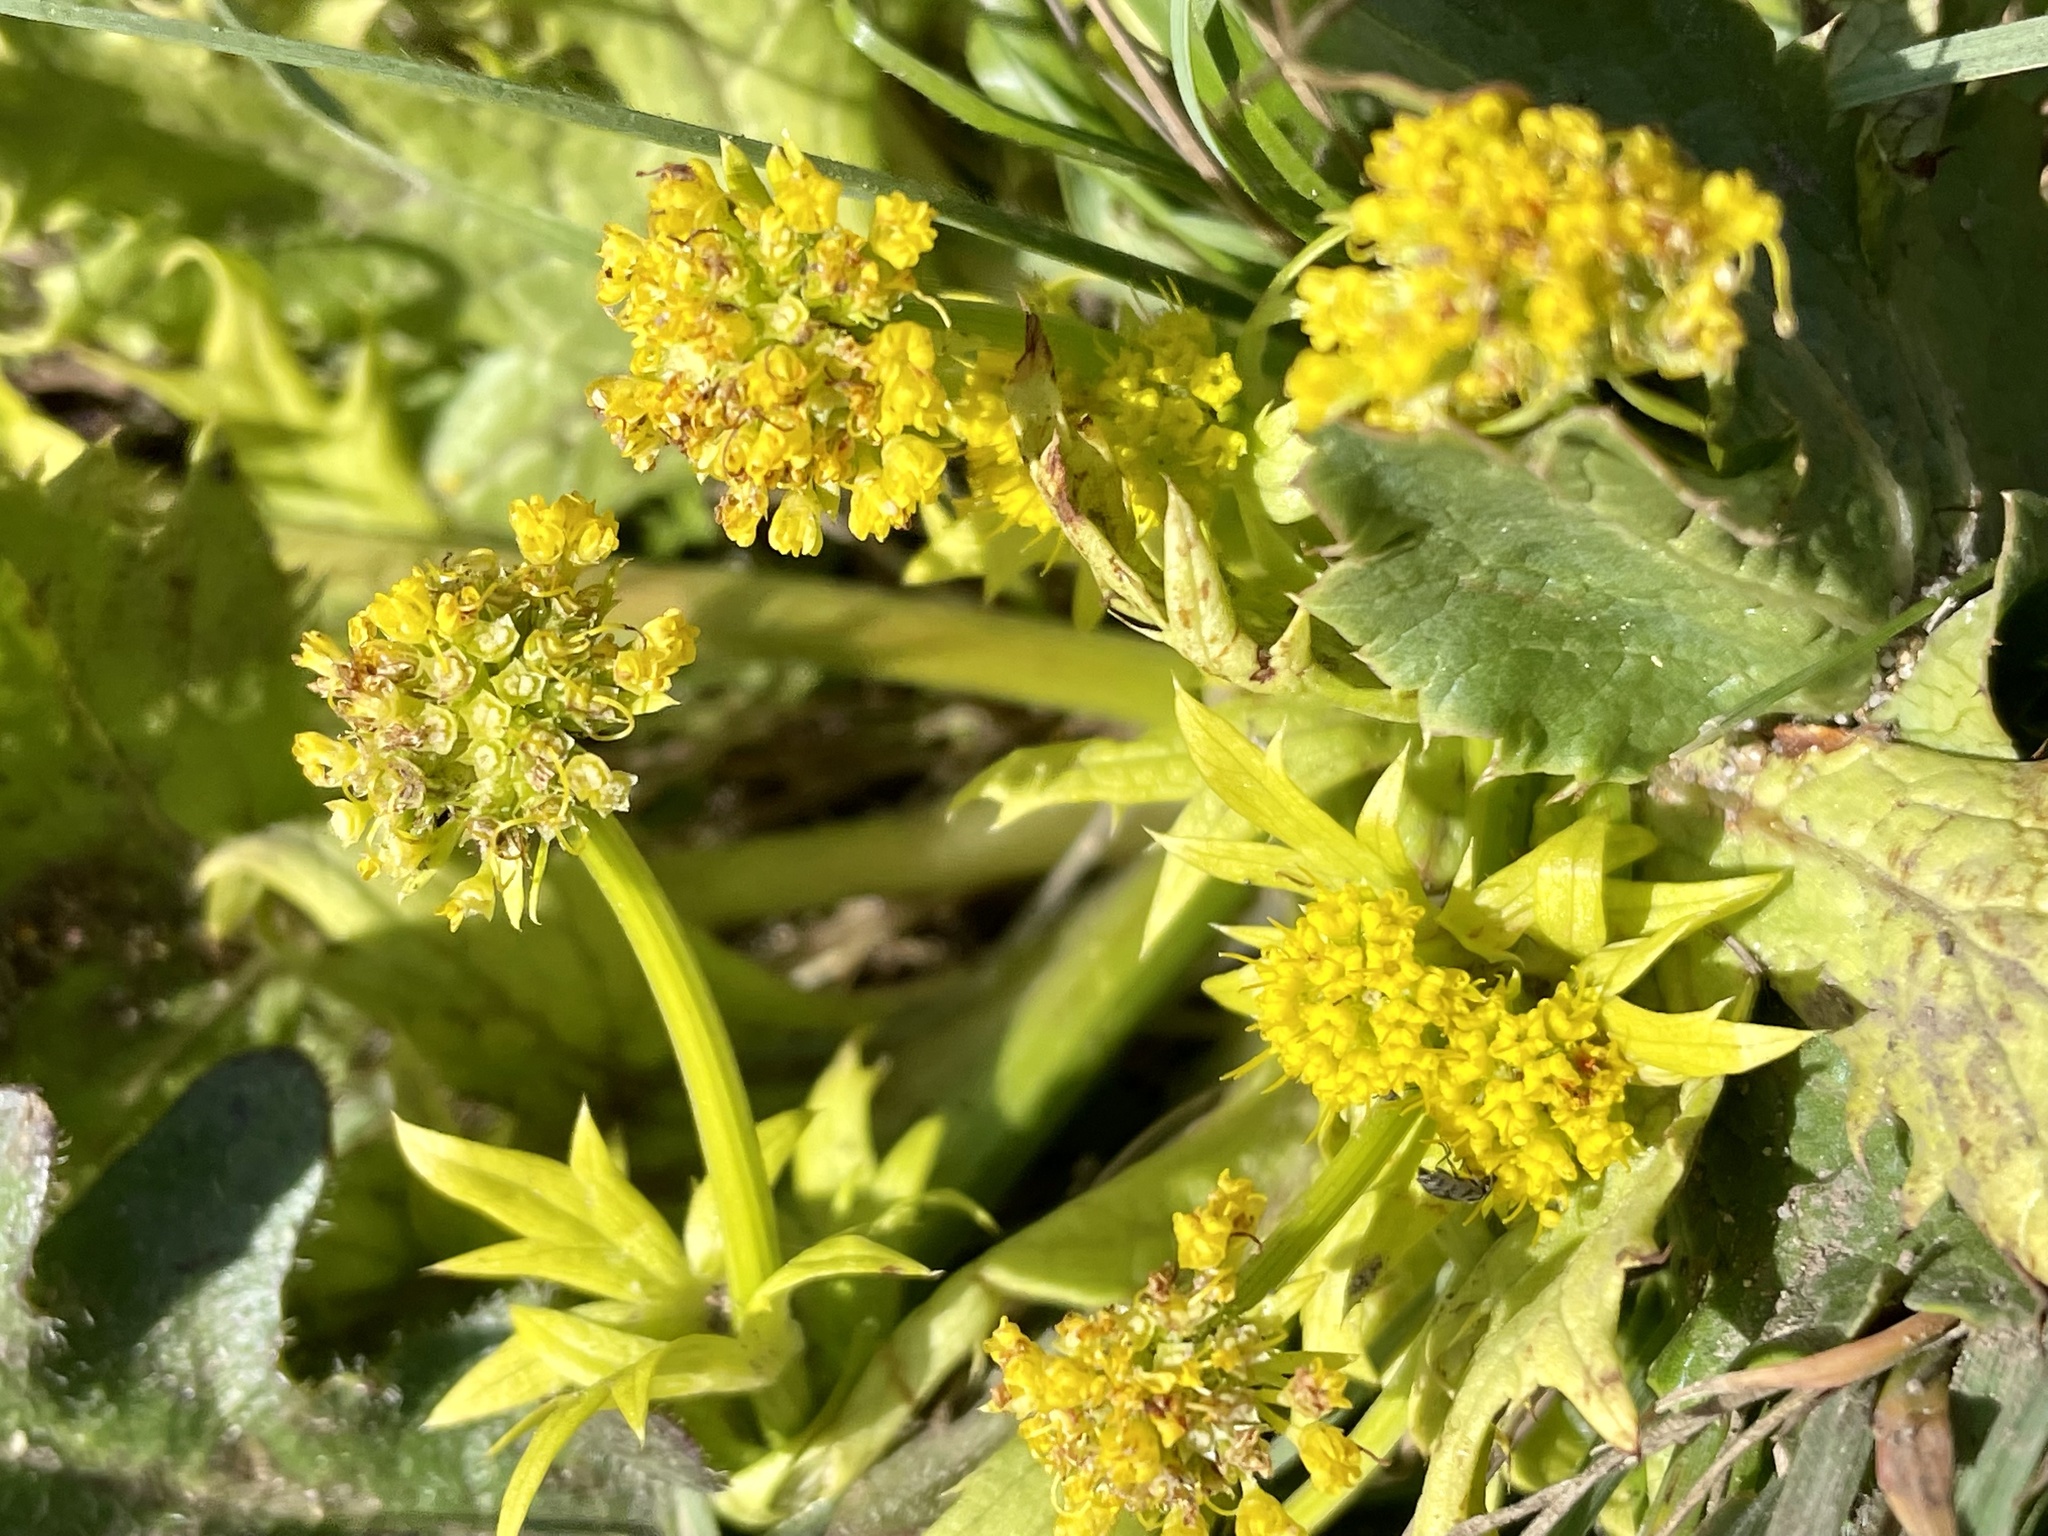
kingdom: Plantae
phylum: Tracheophyta
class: Magnoliopsida
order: Apiales
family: Apiaceae
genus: Sanicula
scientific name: Sanicula arctopoides
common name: Footsteps-of-spring
